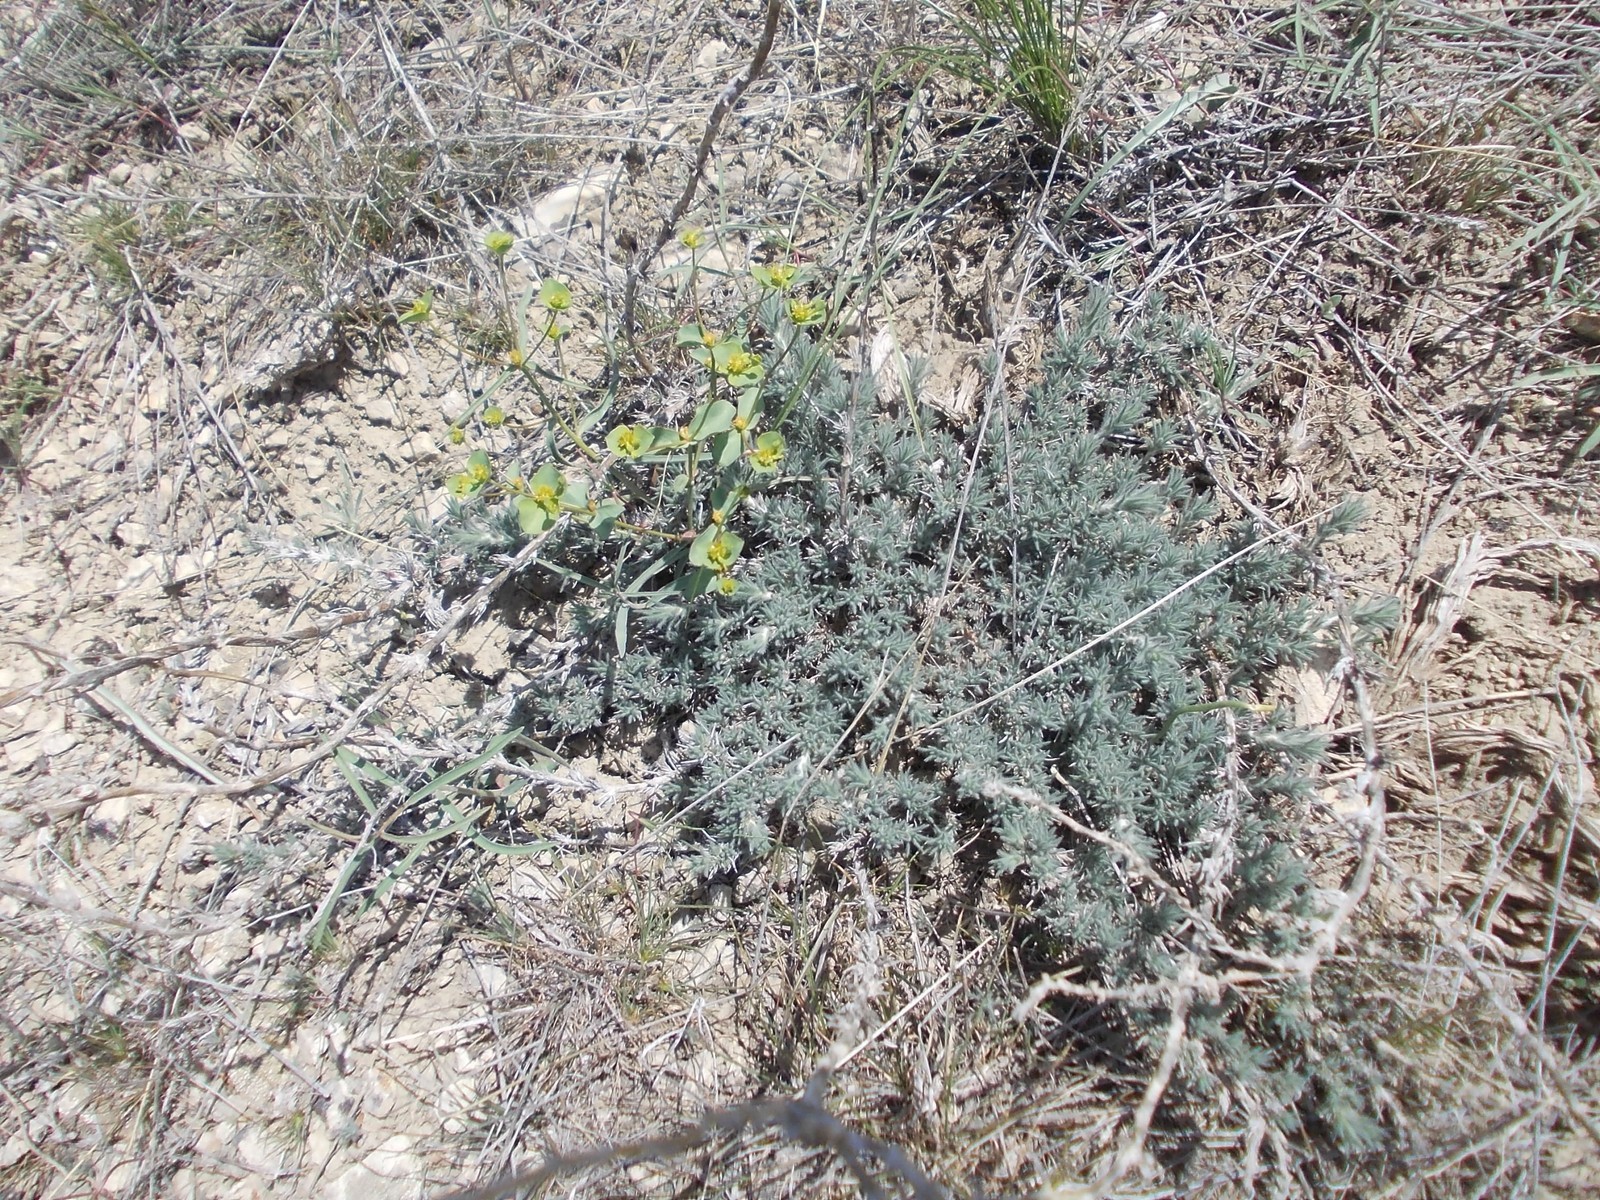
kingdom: Plantae
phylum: Tracheophyta
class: Magnoliopsida
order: Malpighiales
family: Euphorbiaceae
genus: Euphorbia
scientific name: Euphorbia praecox
